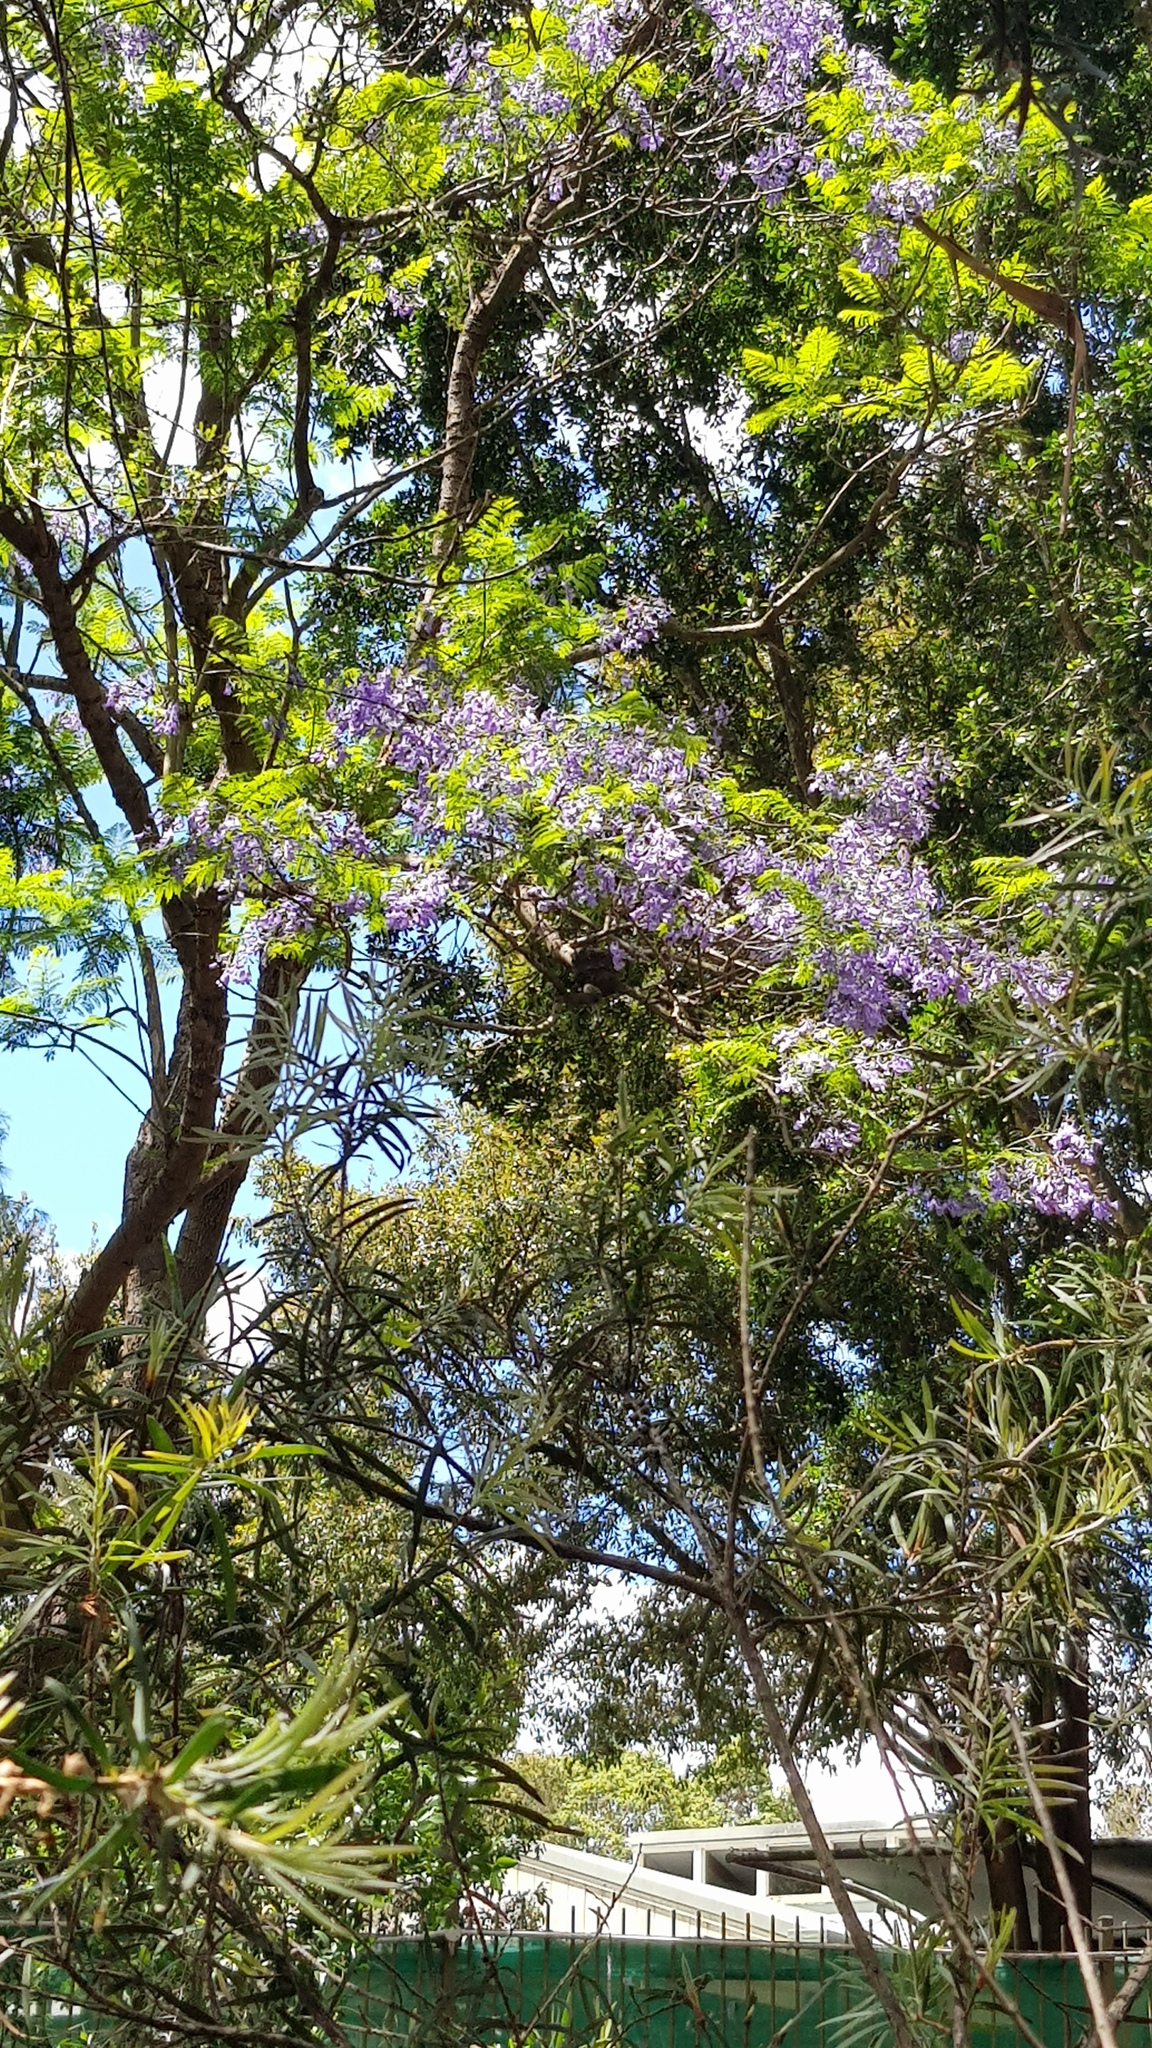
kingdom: Animalia
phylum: Chordata
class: Aves
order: Passeriformes
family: Monarchidae
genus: Grallina
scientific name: Grallina cyanoleuca
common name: Magpie-lark
